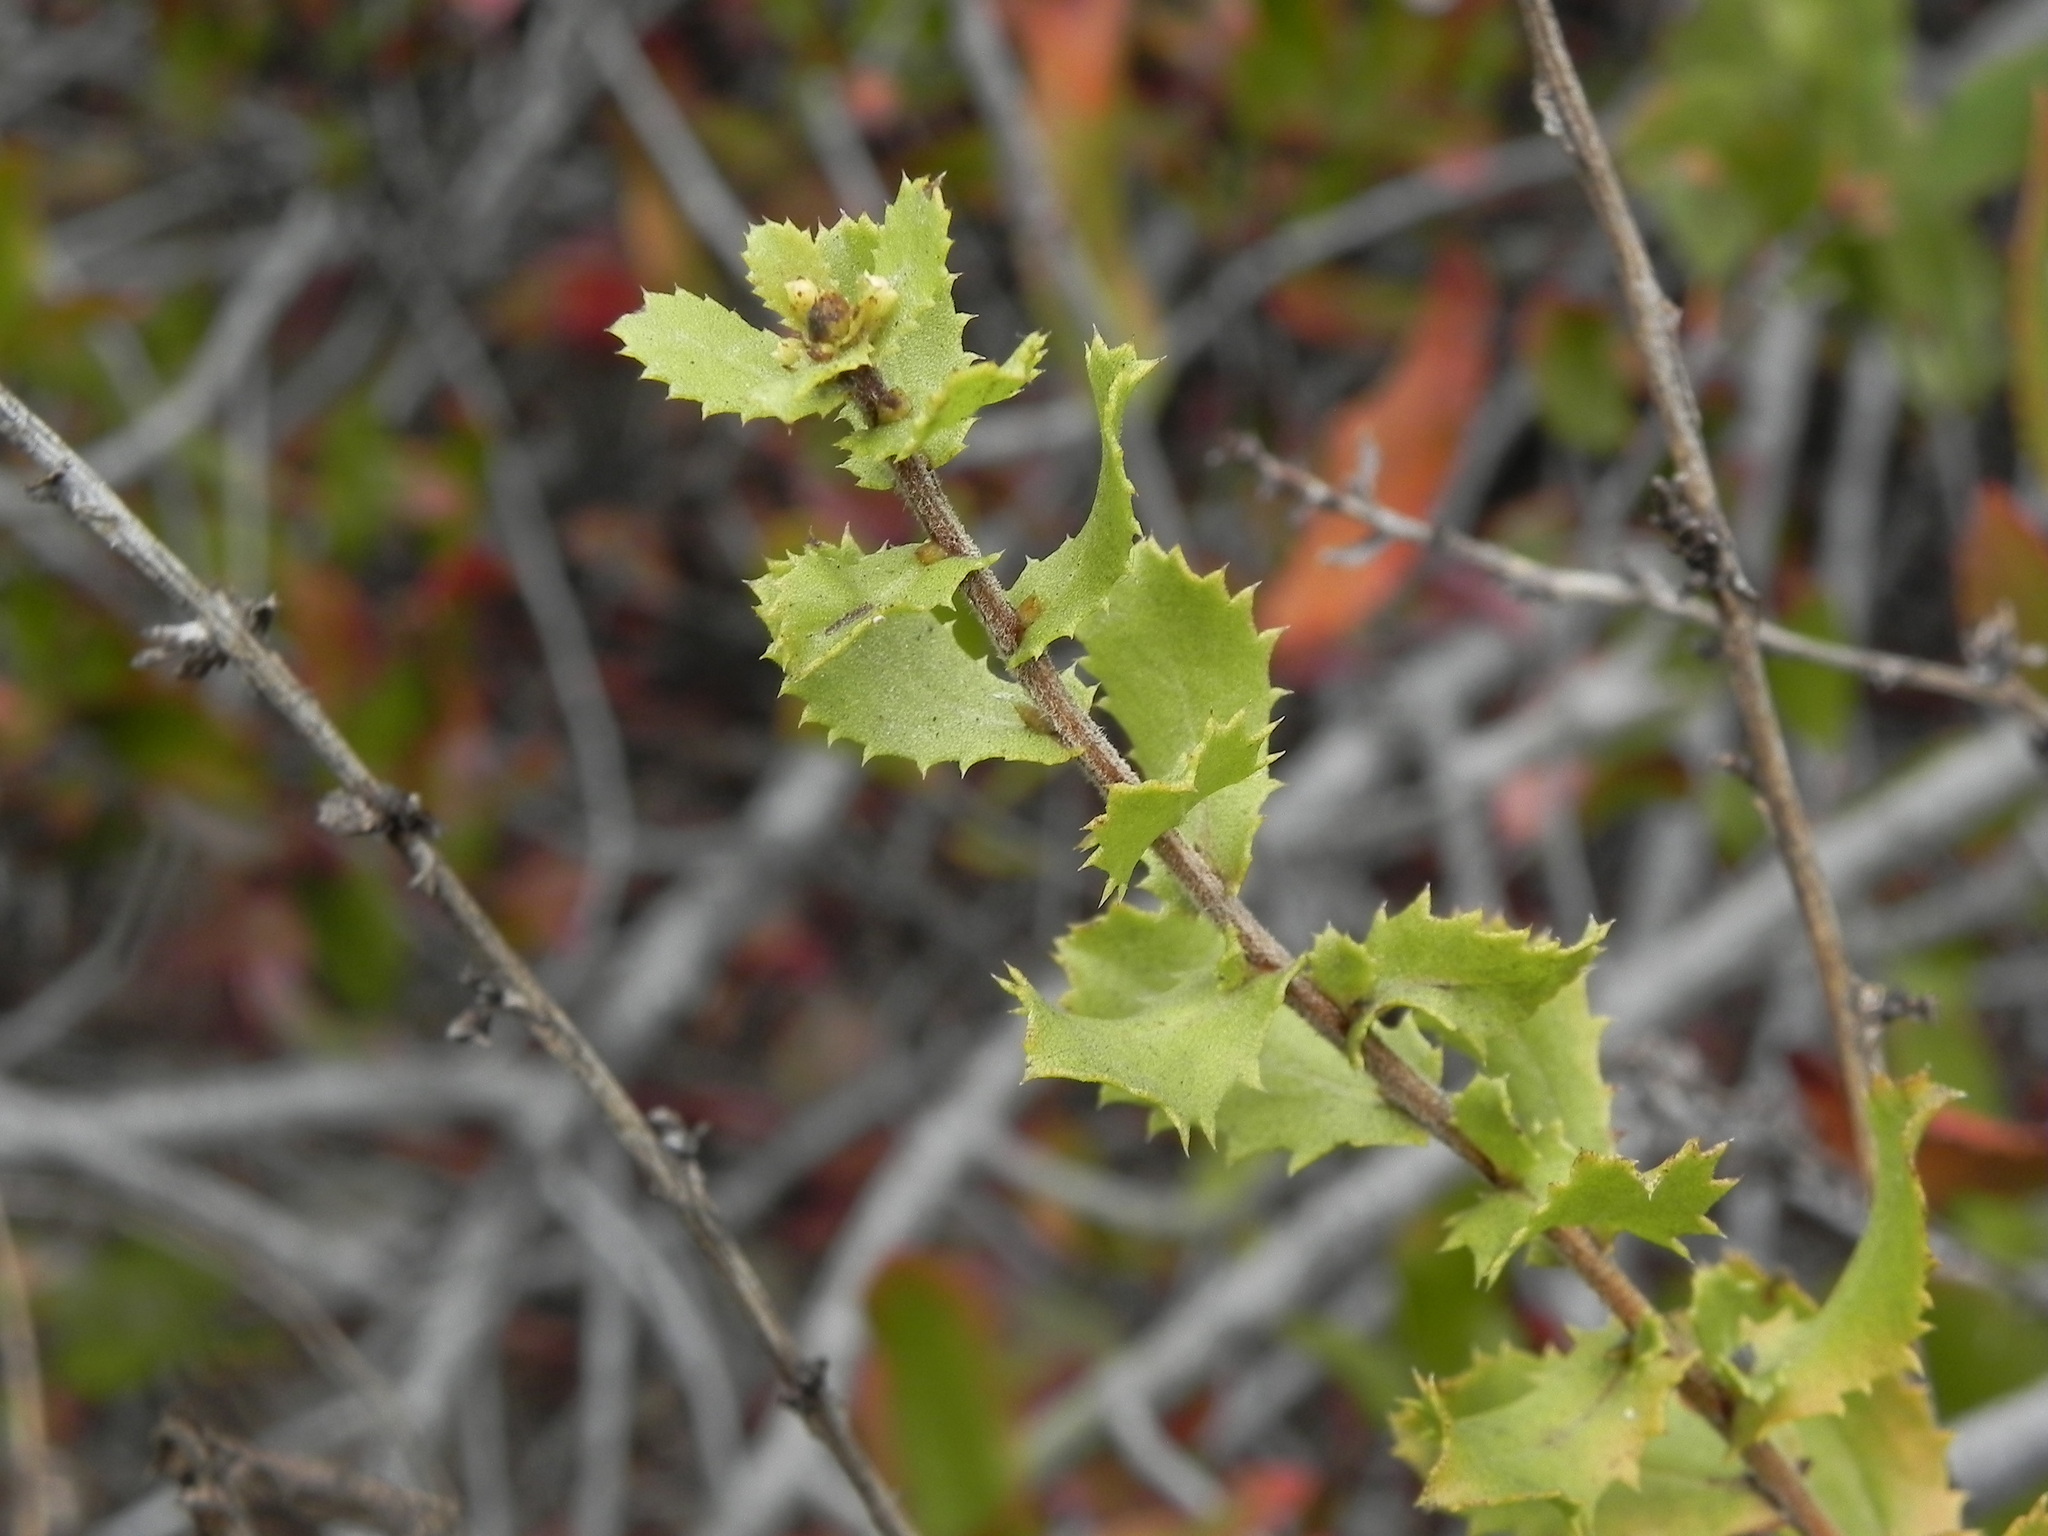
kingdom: Plantae
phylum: Tracheophyta
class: Magnoliopsida
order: Asterales
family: Asteraceae
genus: Hazardia
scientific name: Hazardia squarrosa
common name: Saw-tooth goldenbush
